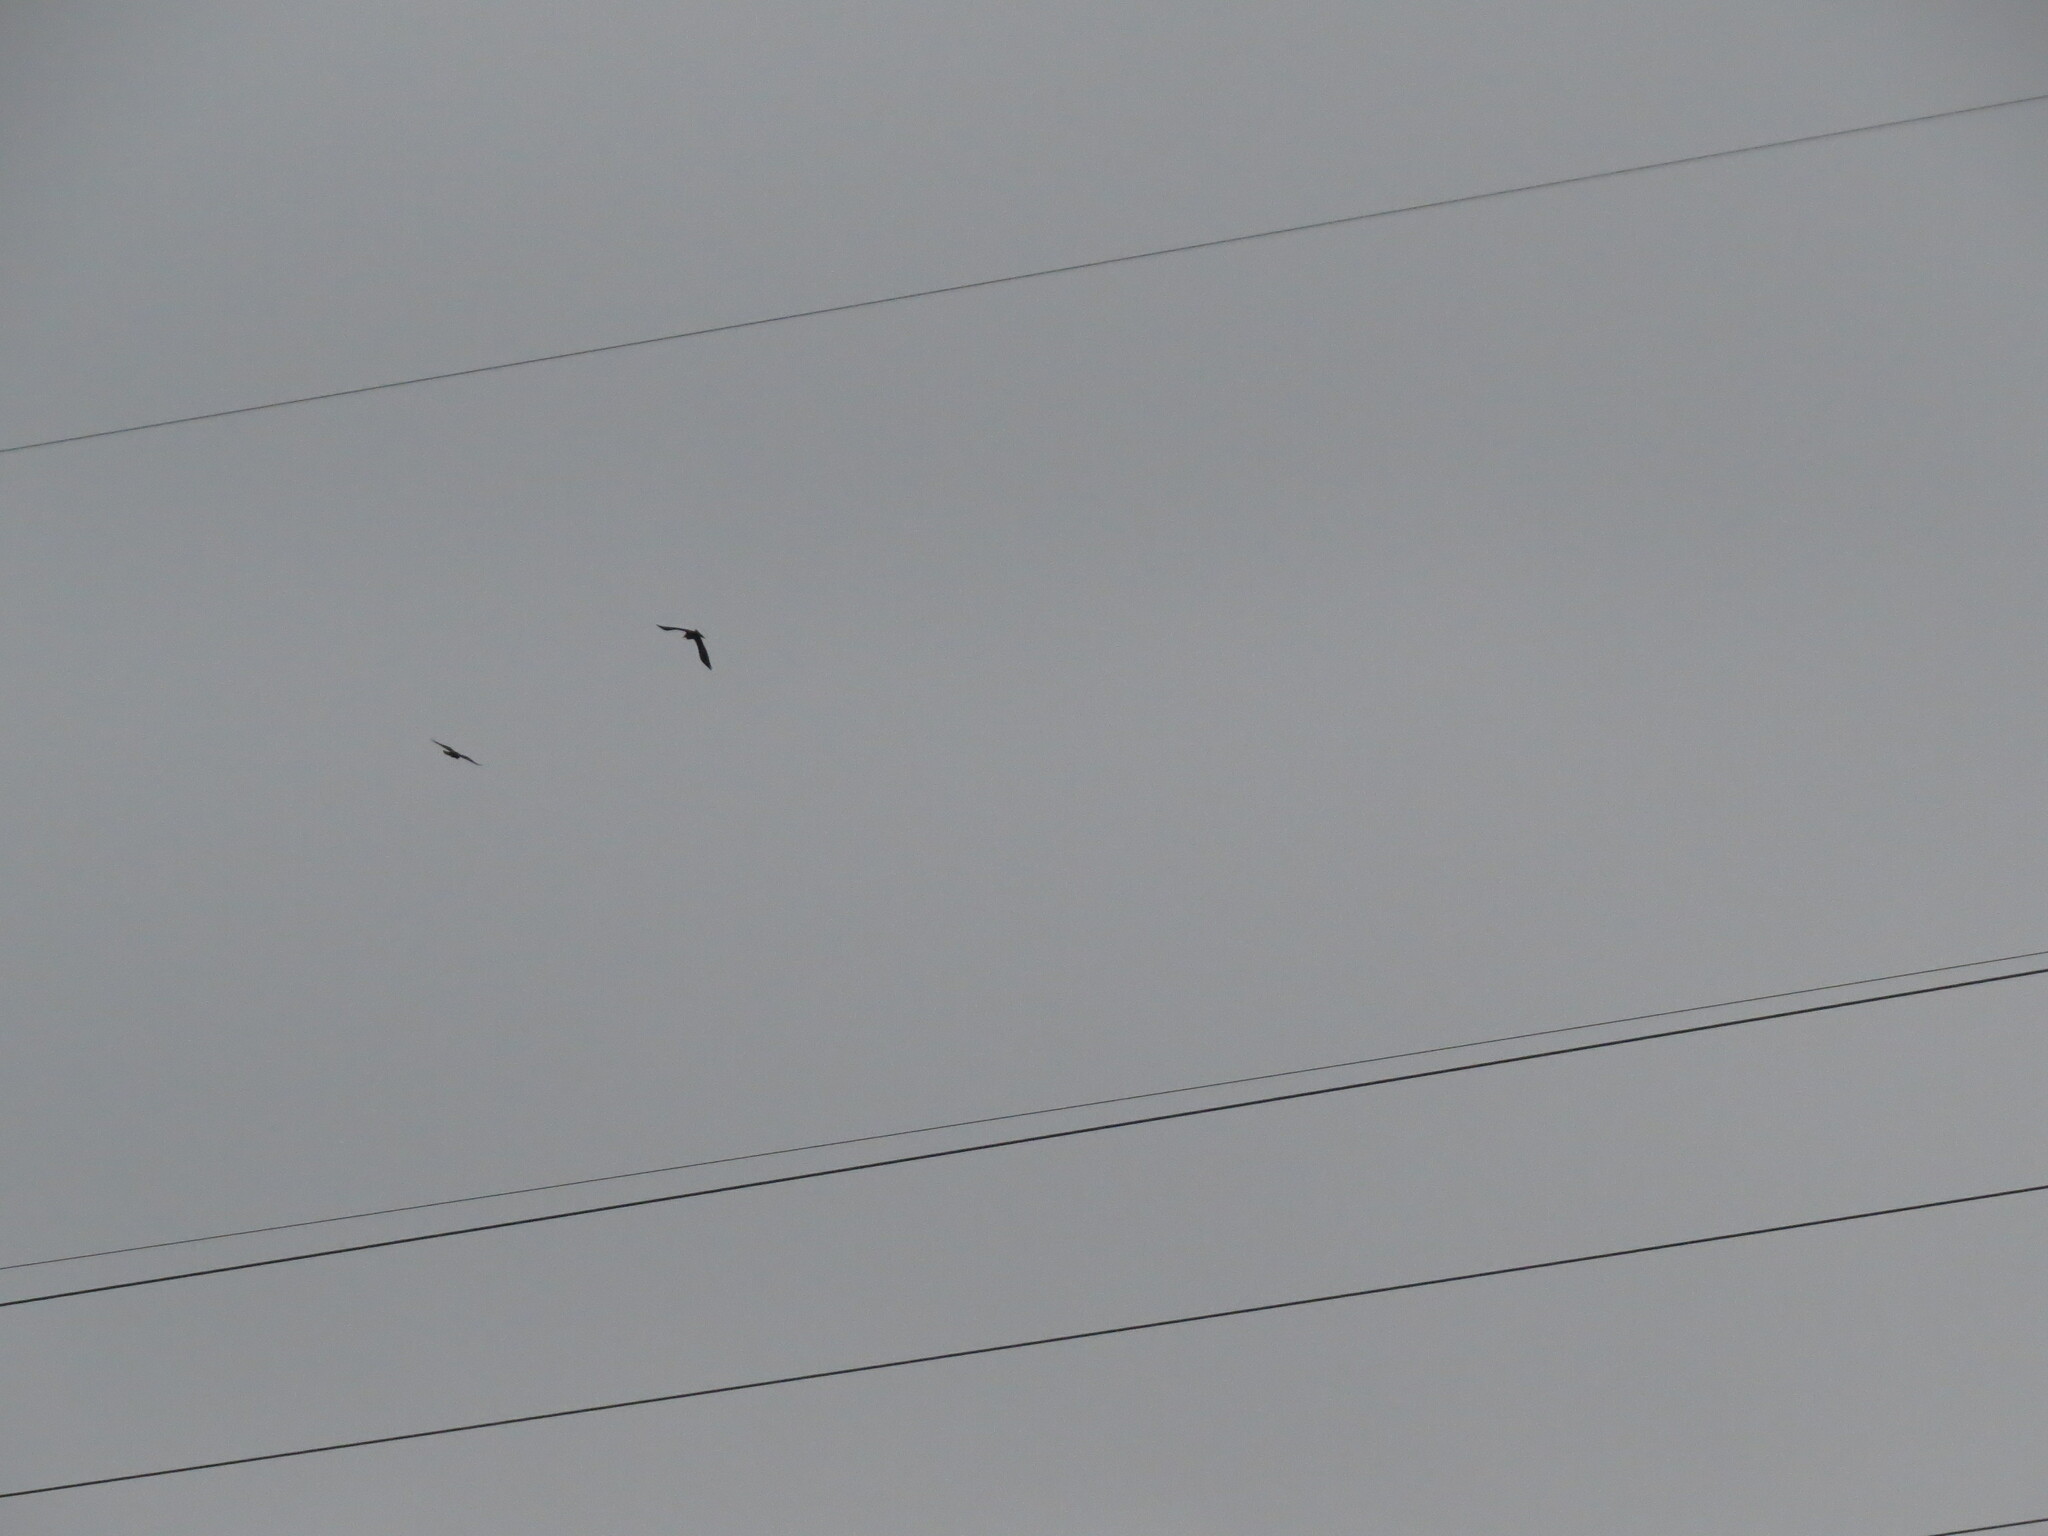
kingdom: Animalia
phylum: Chordata
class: Aves
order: Passeriformes
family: Corvidae
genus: Corvus
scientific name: Corvus corax
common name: Common raven
